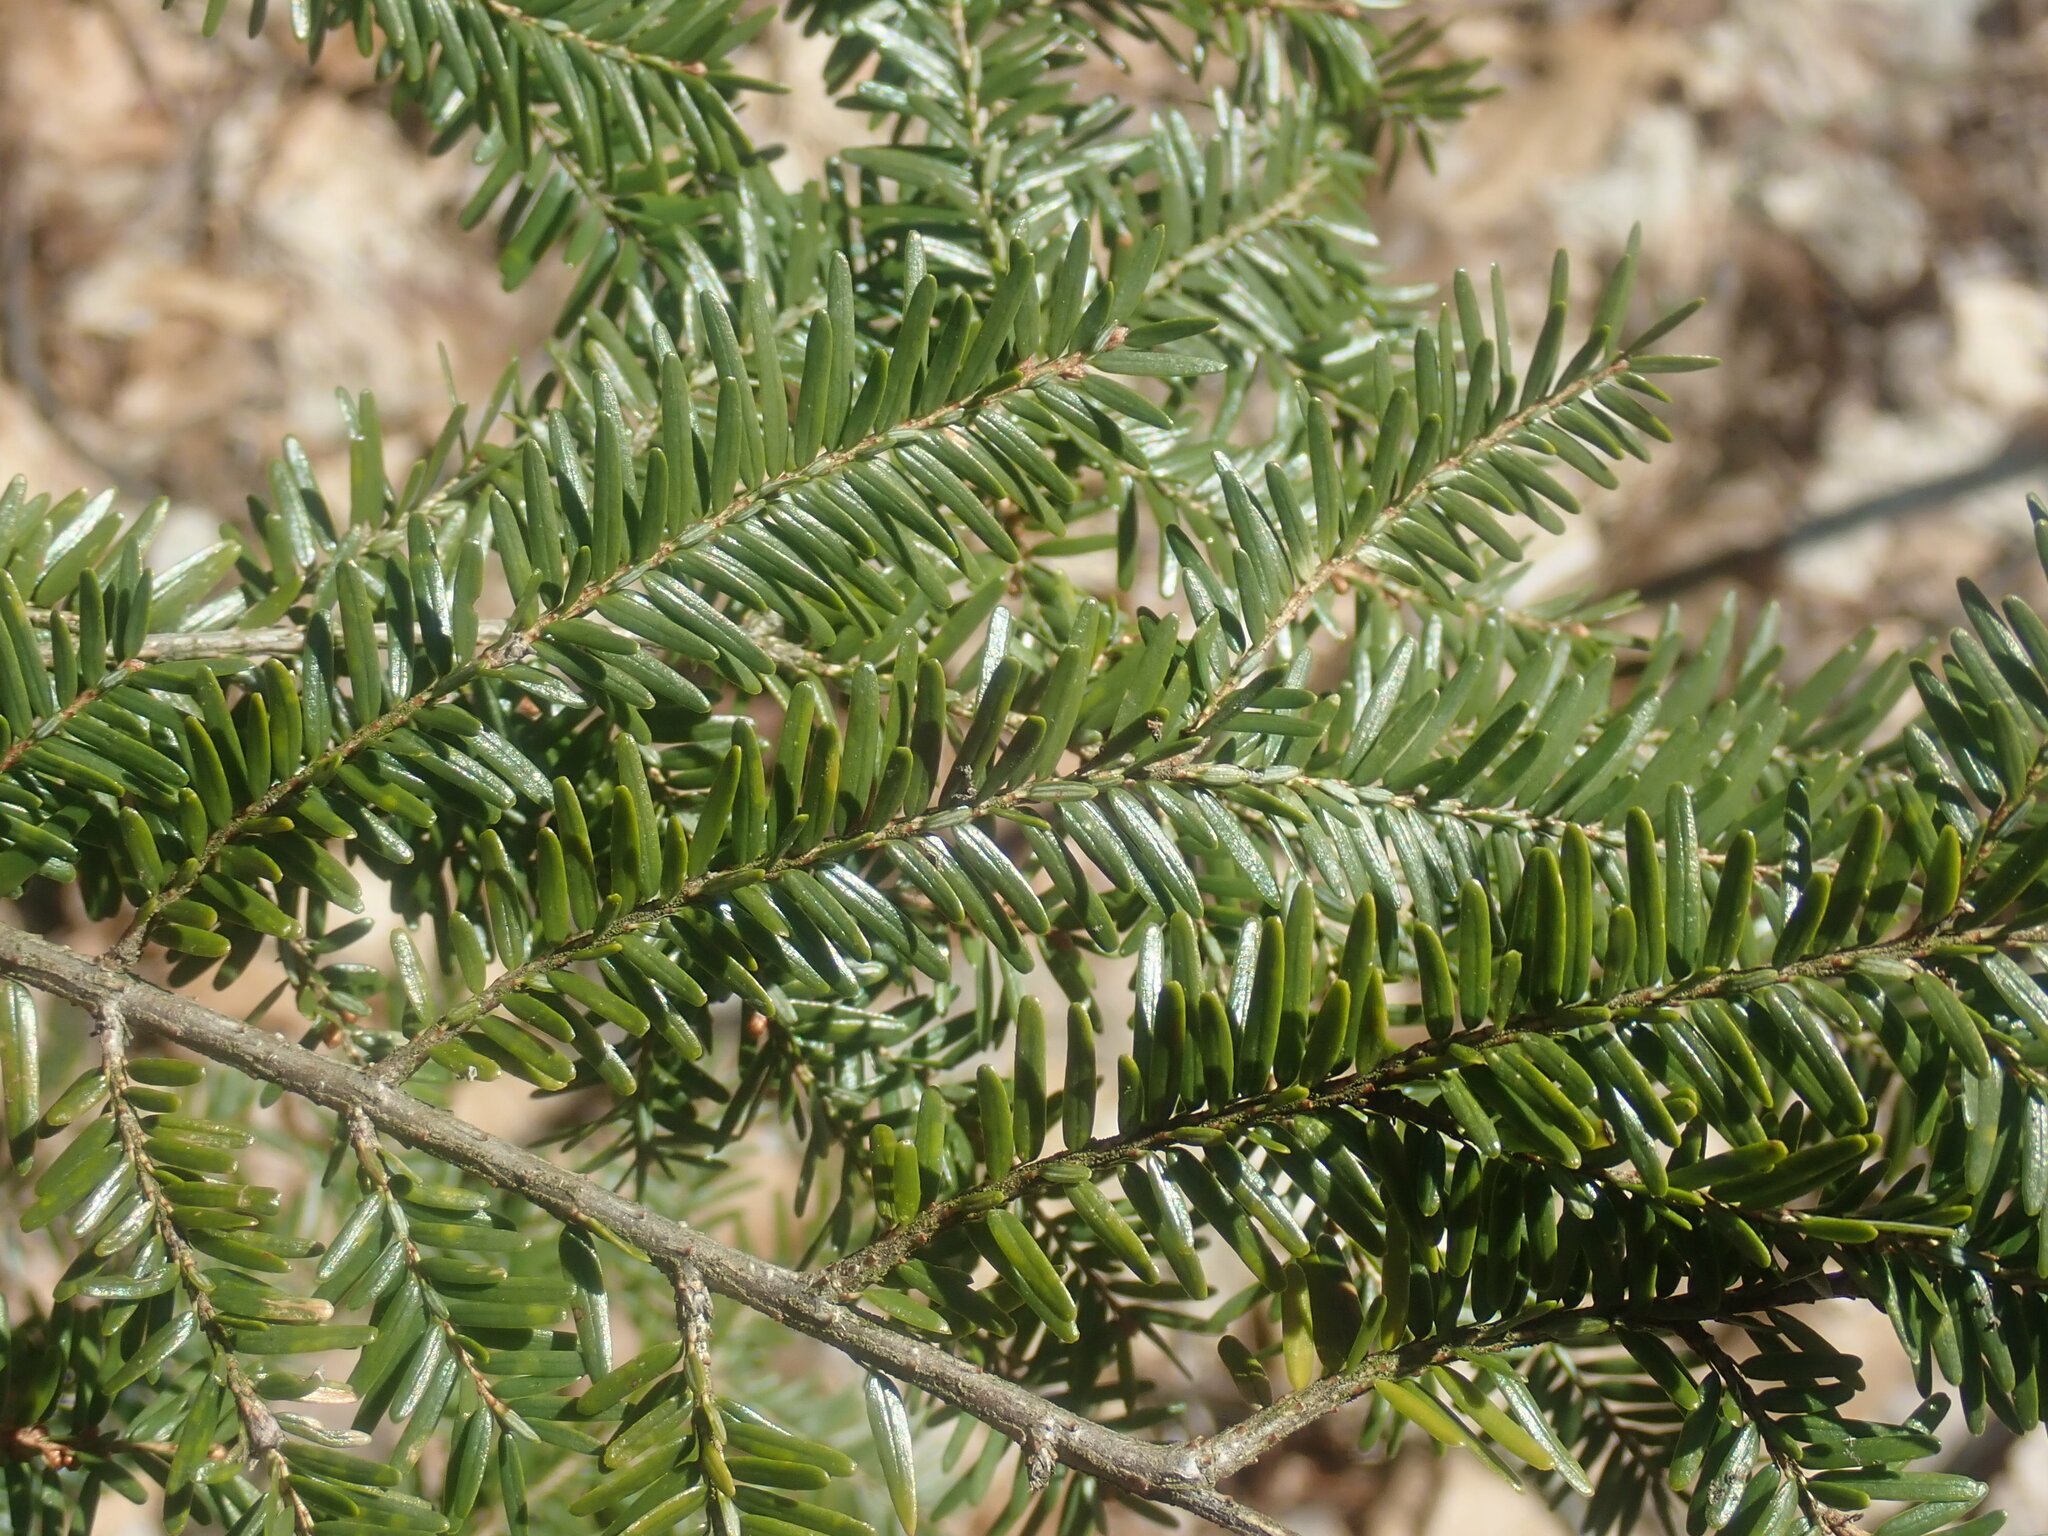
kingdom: Plantae
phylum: Tracheophyta
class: Pinopsida
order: Pinales
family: Pinaceae
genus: Tsuga
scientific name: Tsuga canadensis
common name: Eastern hemlock
